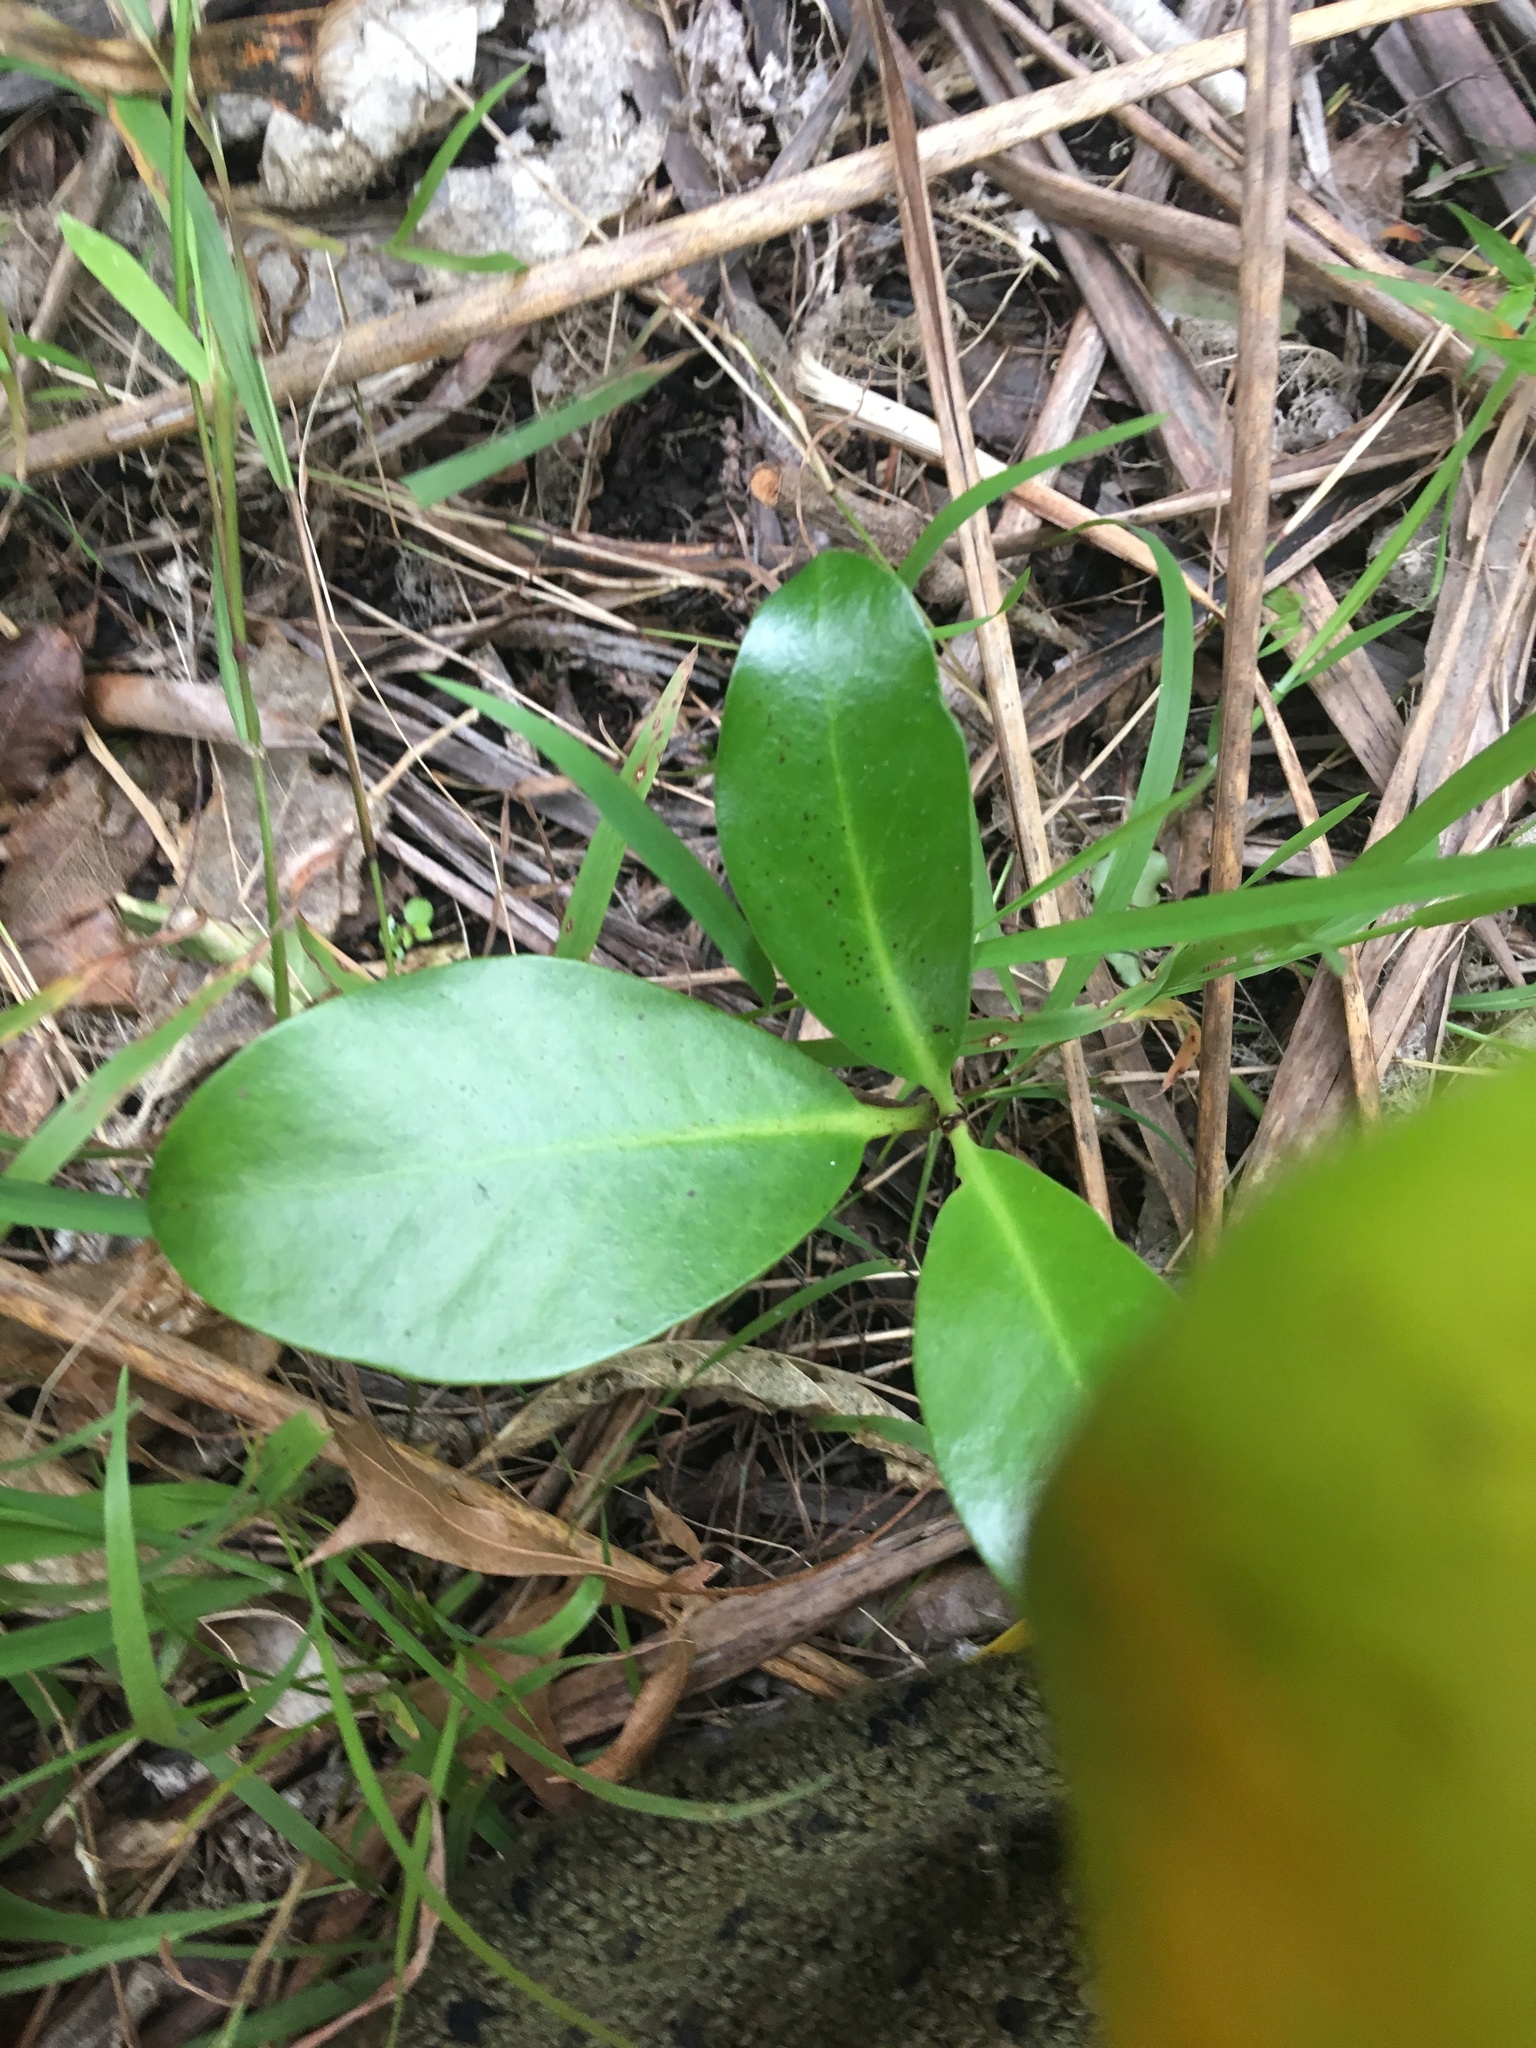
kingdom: Plantae
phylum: Tracheophyta
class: Magnoliopsida
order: Cucurbitales
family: Corynocarpaceae
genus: Corynocarpus
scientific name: Corynocarpus laevigatus
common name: New zealand laurel
